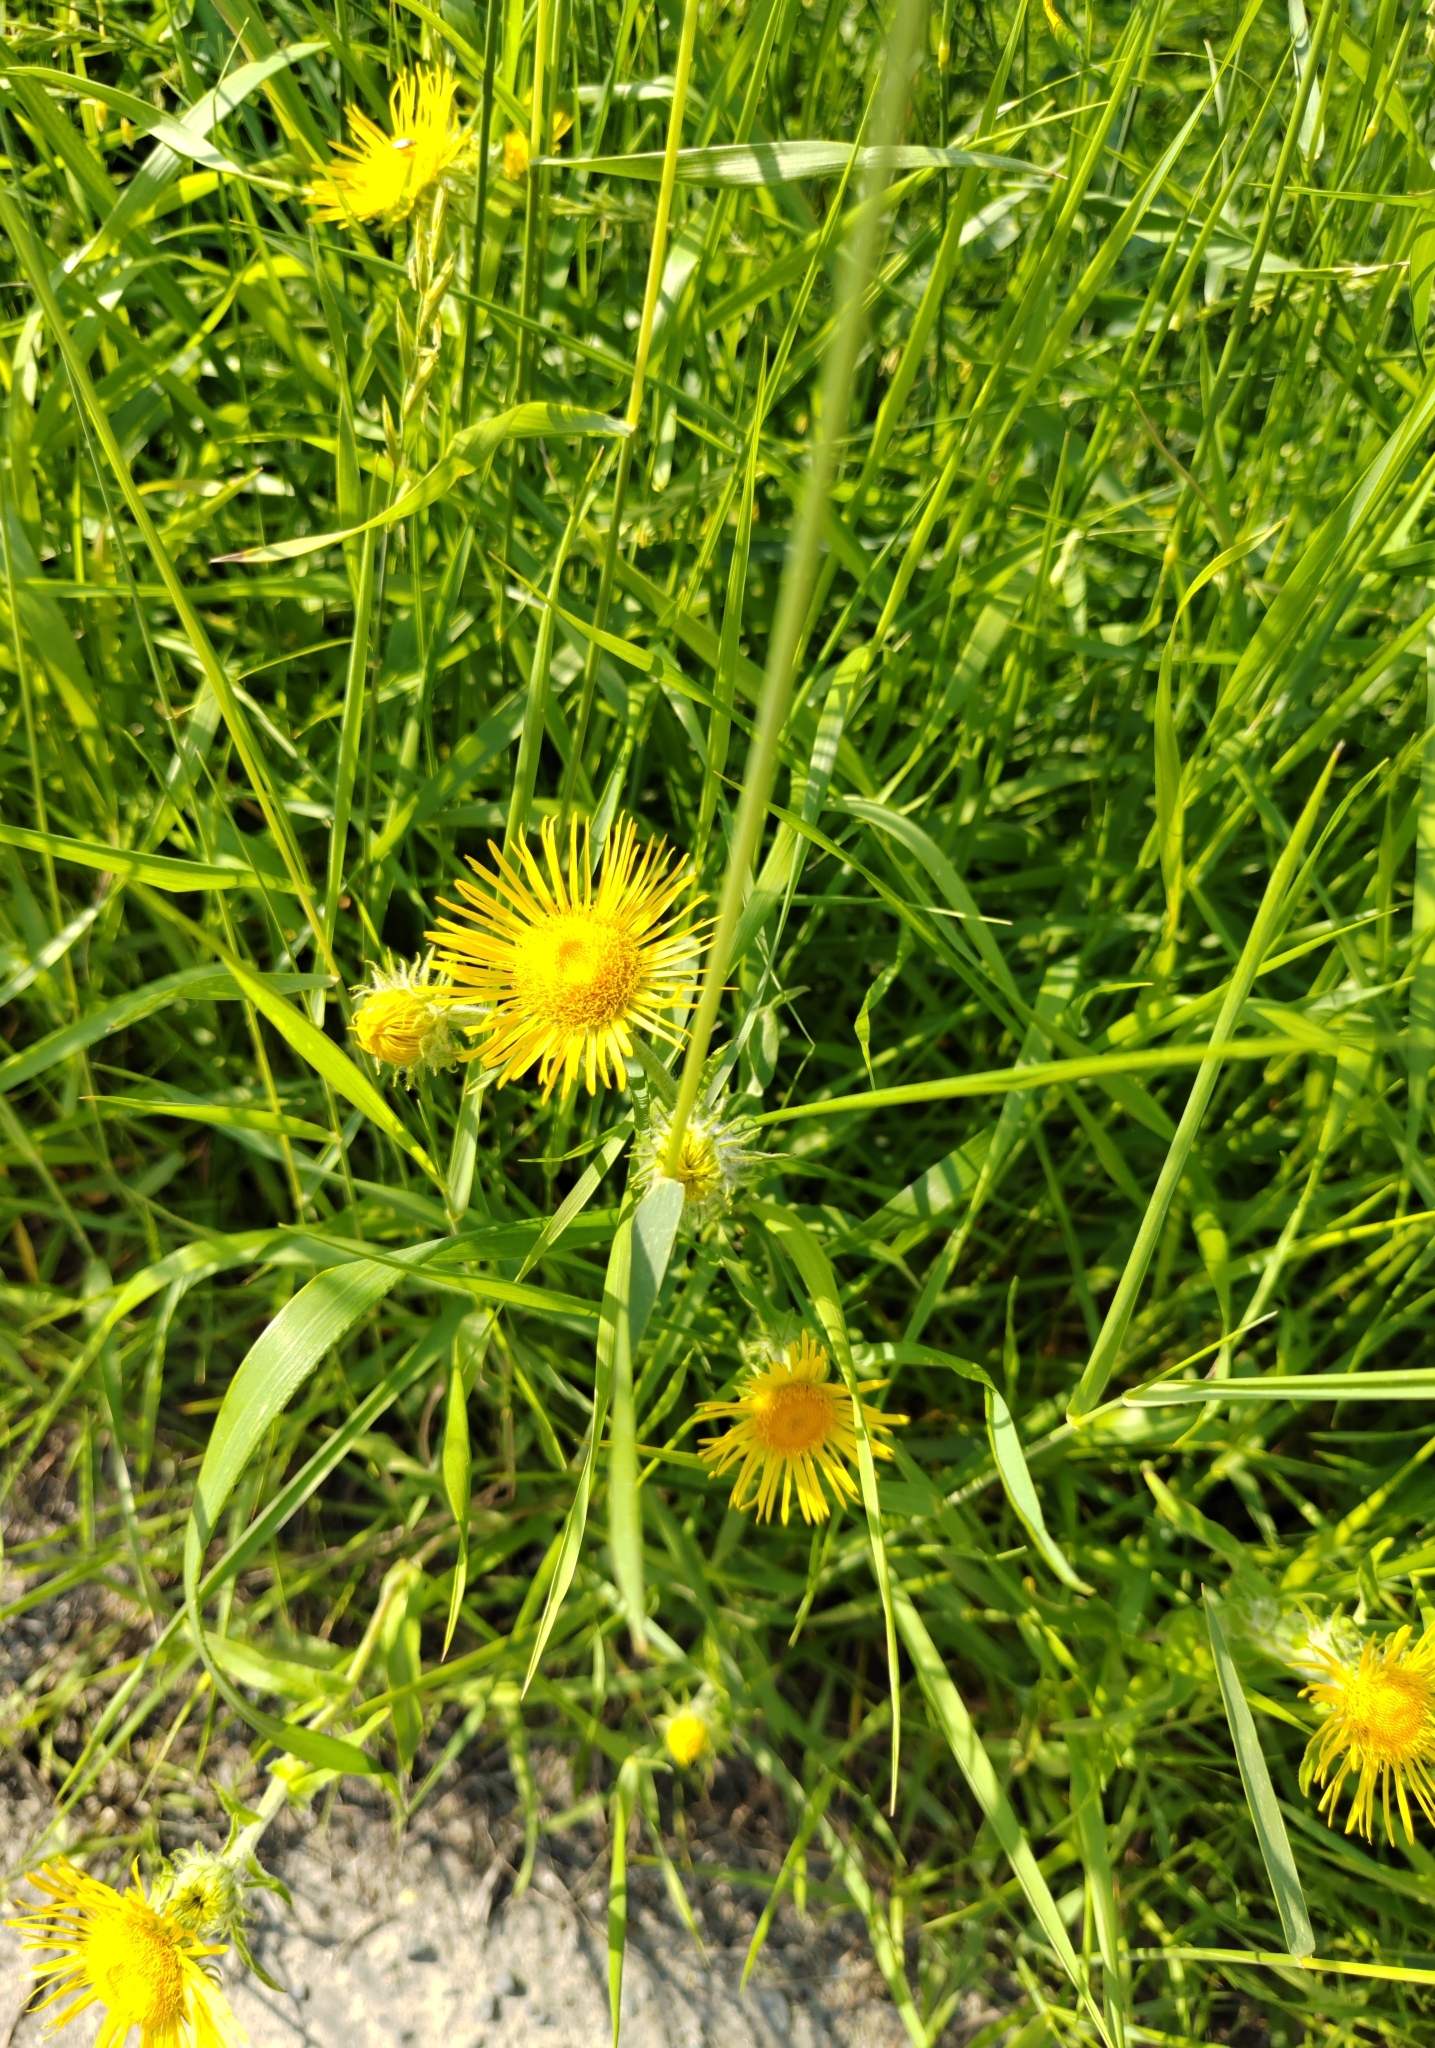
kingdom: Plantae
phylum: Tracheophyta
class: Magnoliopsida
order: Asterales
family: Asteraceae
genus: Pentanema
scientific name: Pentanema britannicum
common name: British elecampane
